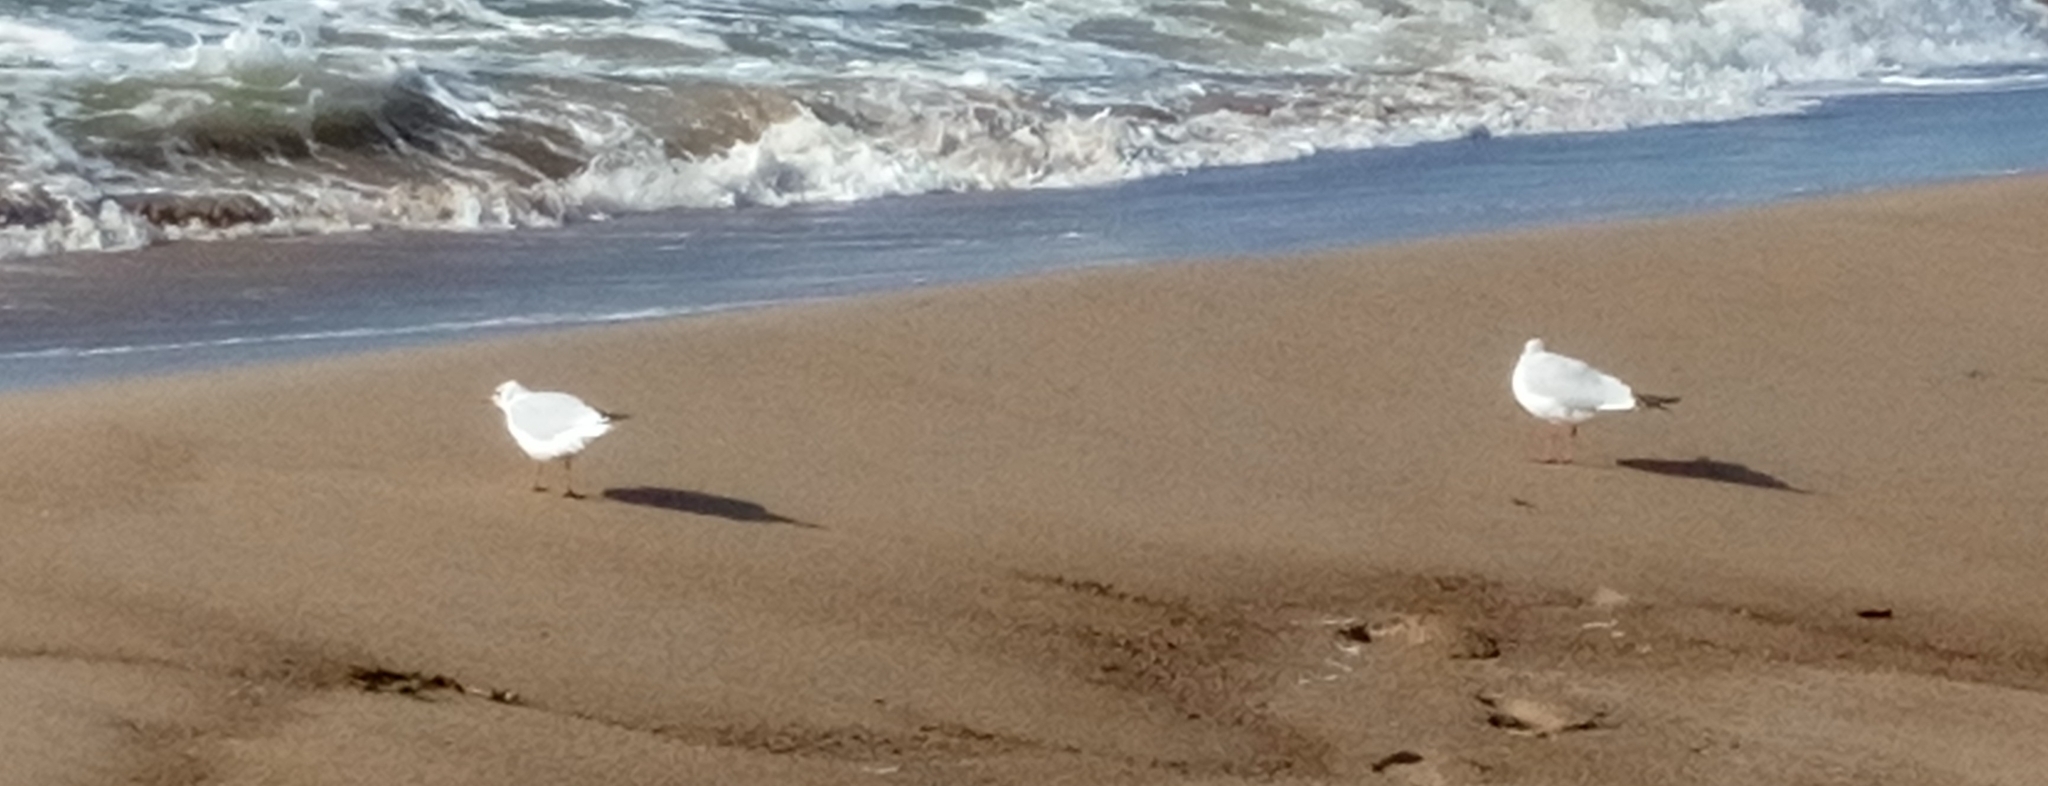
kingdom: Animalia
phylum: Chordata
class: Aves
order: Charadriiformes
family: Laridae
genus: Chroicocephalus
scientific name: Chroicocephalus ridibundus
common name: Black-headed gull
